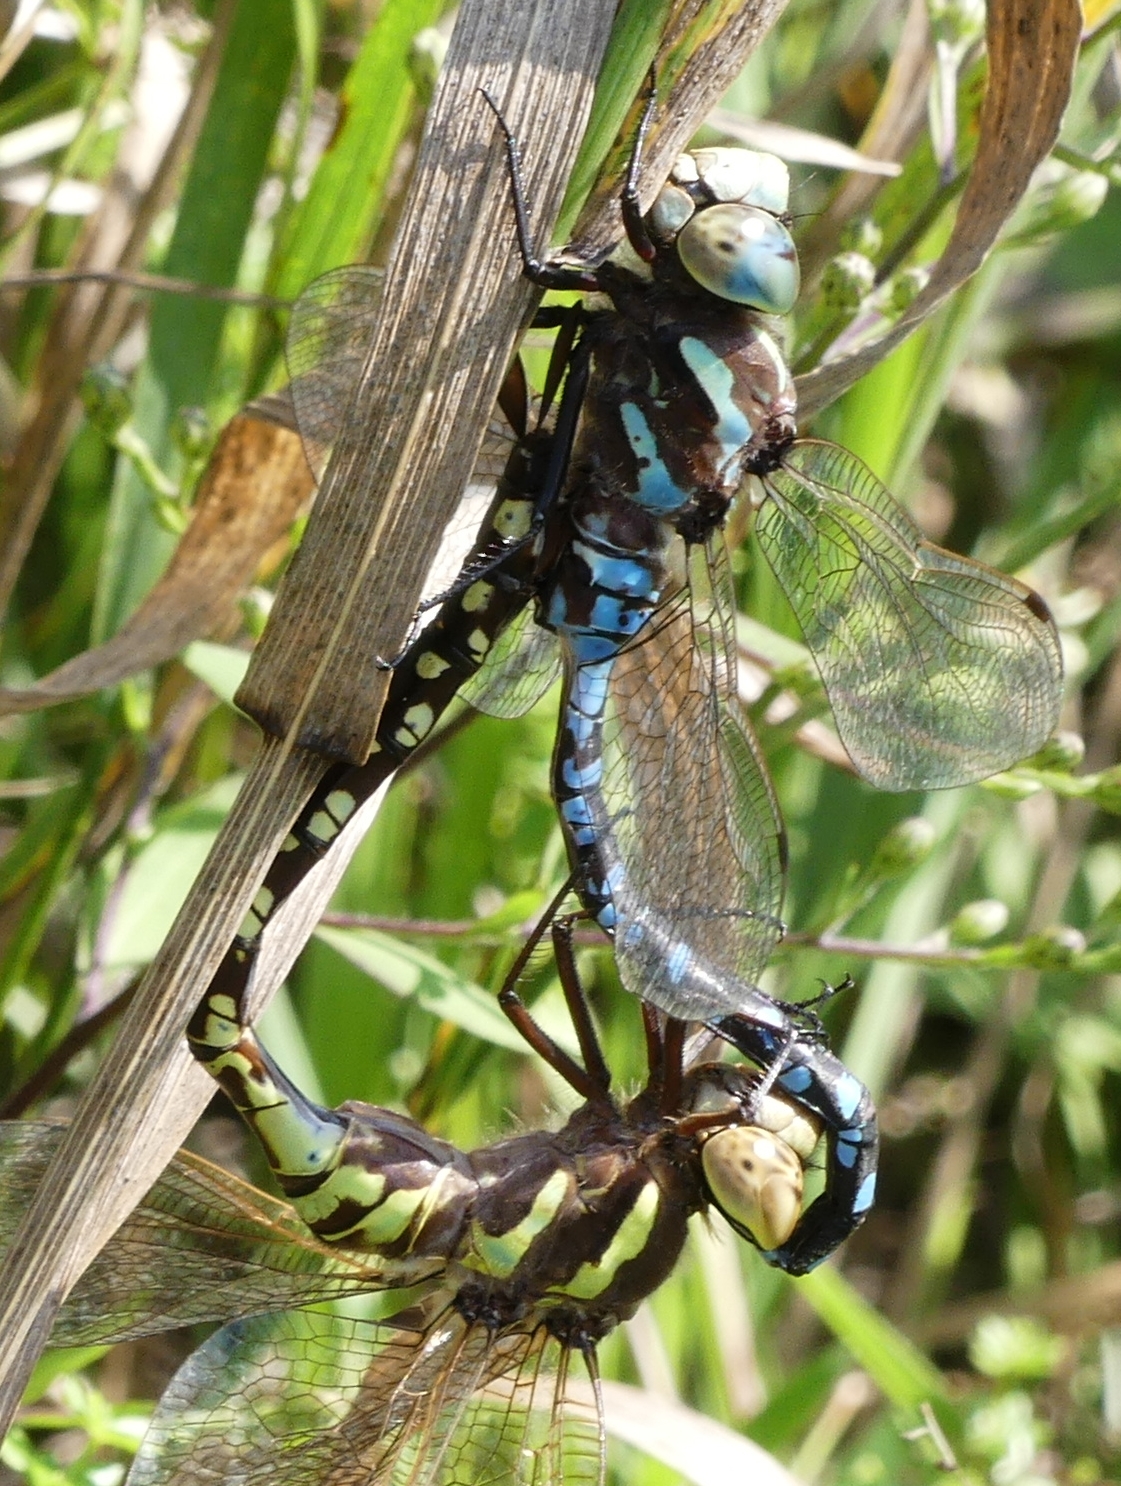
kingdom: Animalia
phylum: Arthropoda
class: Insecta
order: Odonata
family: Aeshnidae
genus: Aeshna
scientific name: Aeshna constricta
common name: Lance-tipped darner
